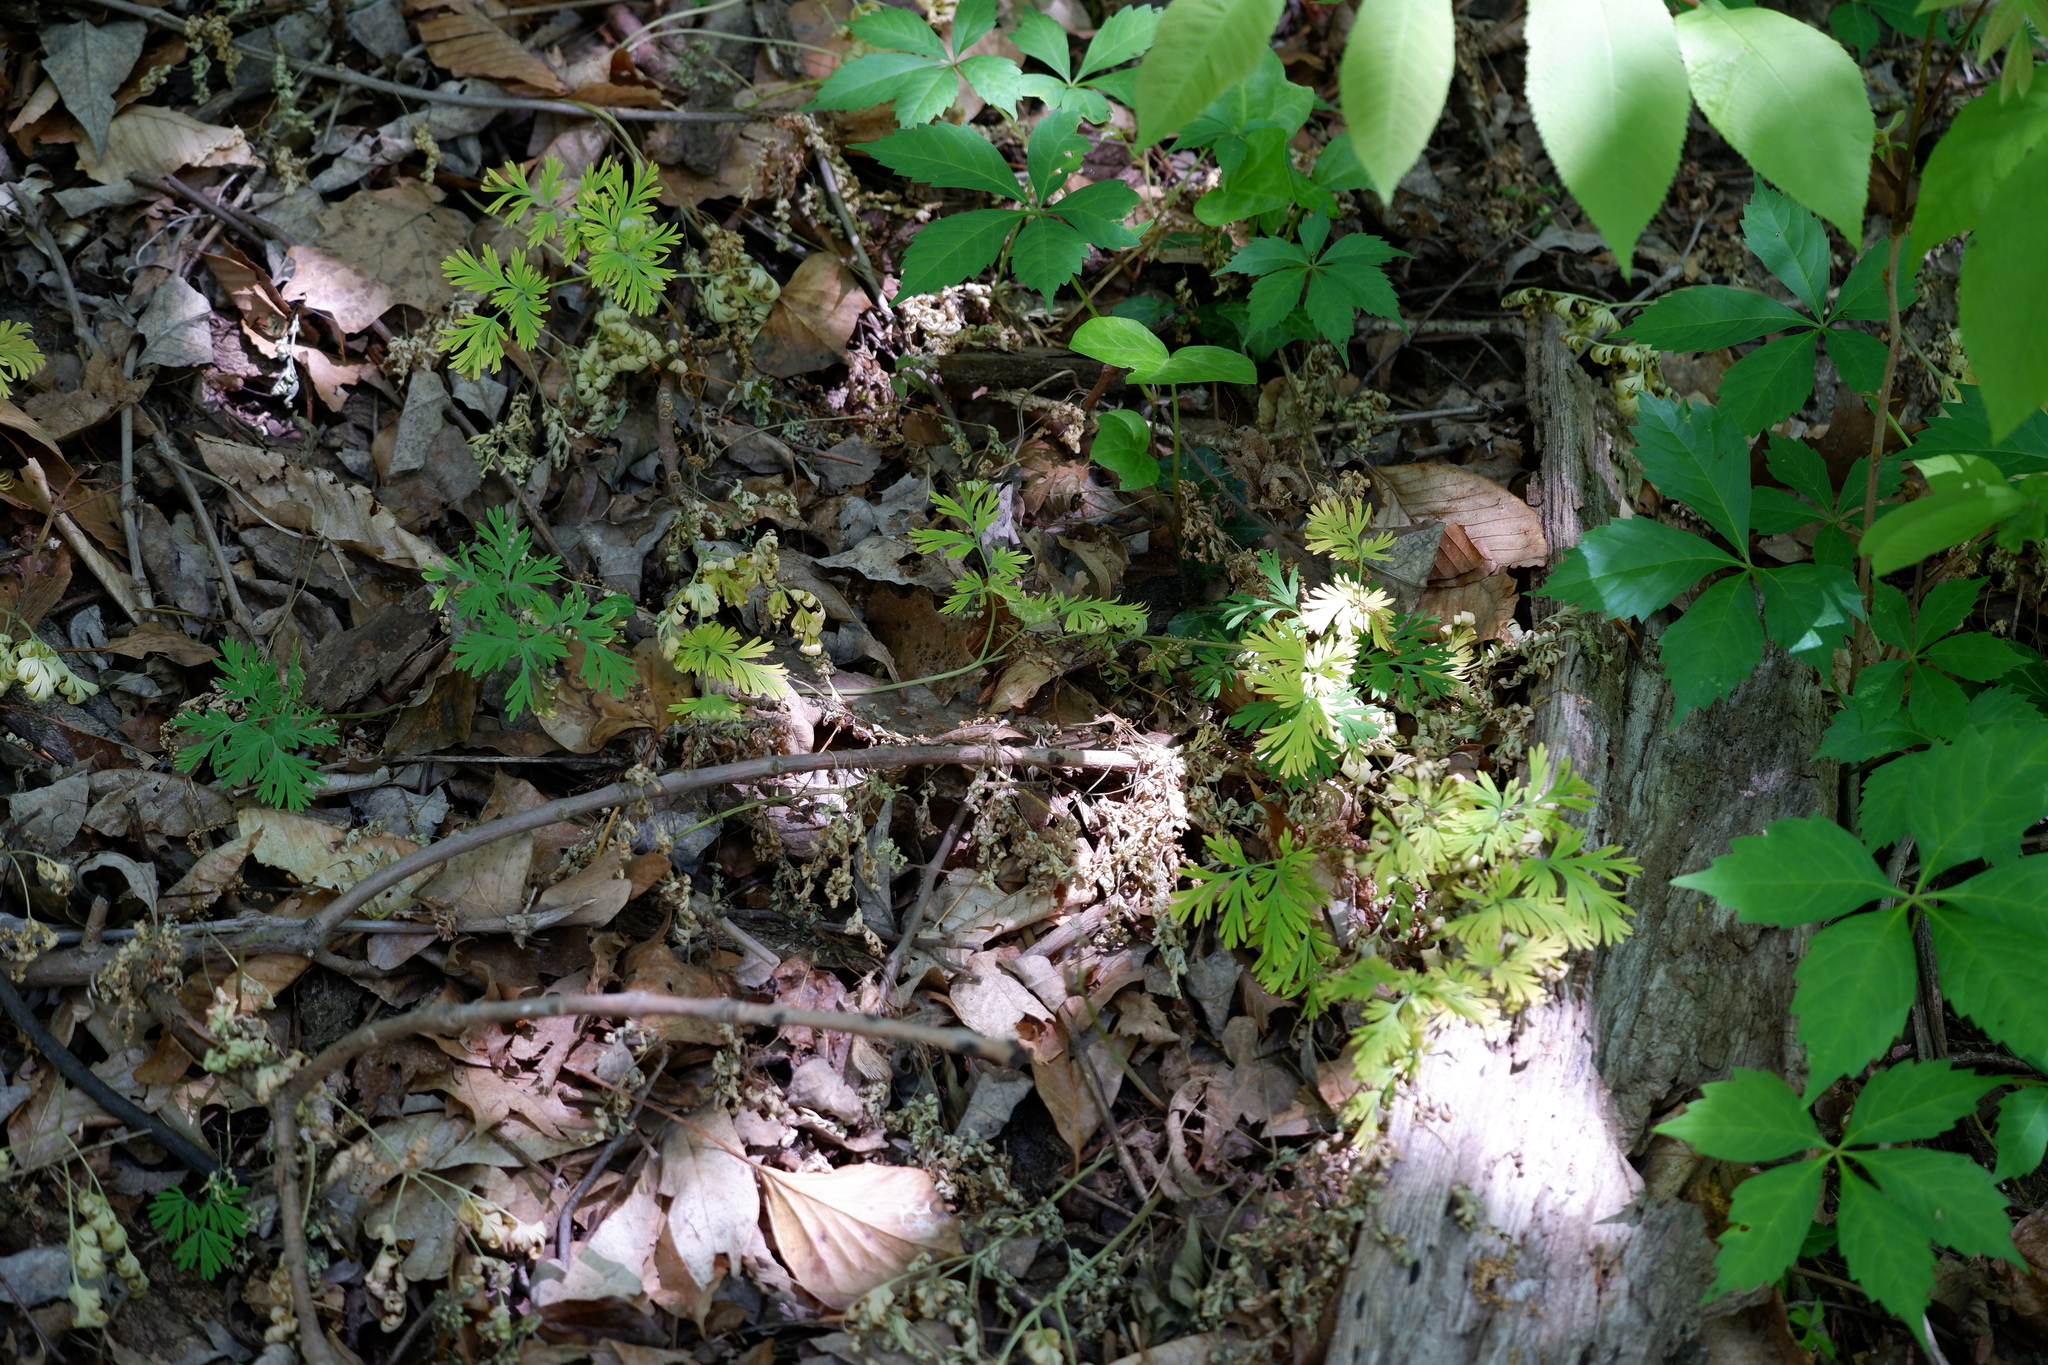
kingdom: Plantae
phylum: Tracheophyta
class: Magnoliopsida
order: Ranunculales
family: Papaveraceae
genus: Dicentra
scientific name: Dicentra cucullaria
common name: Dutchman's breeches
